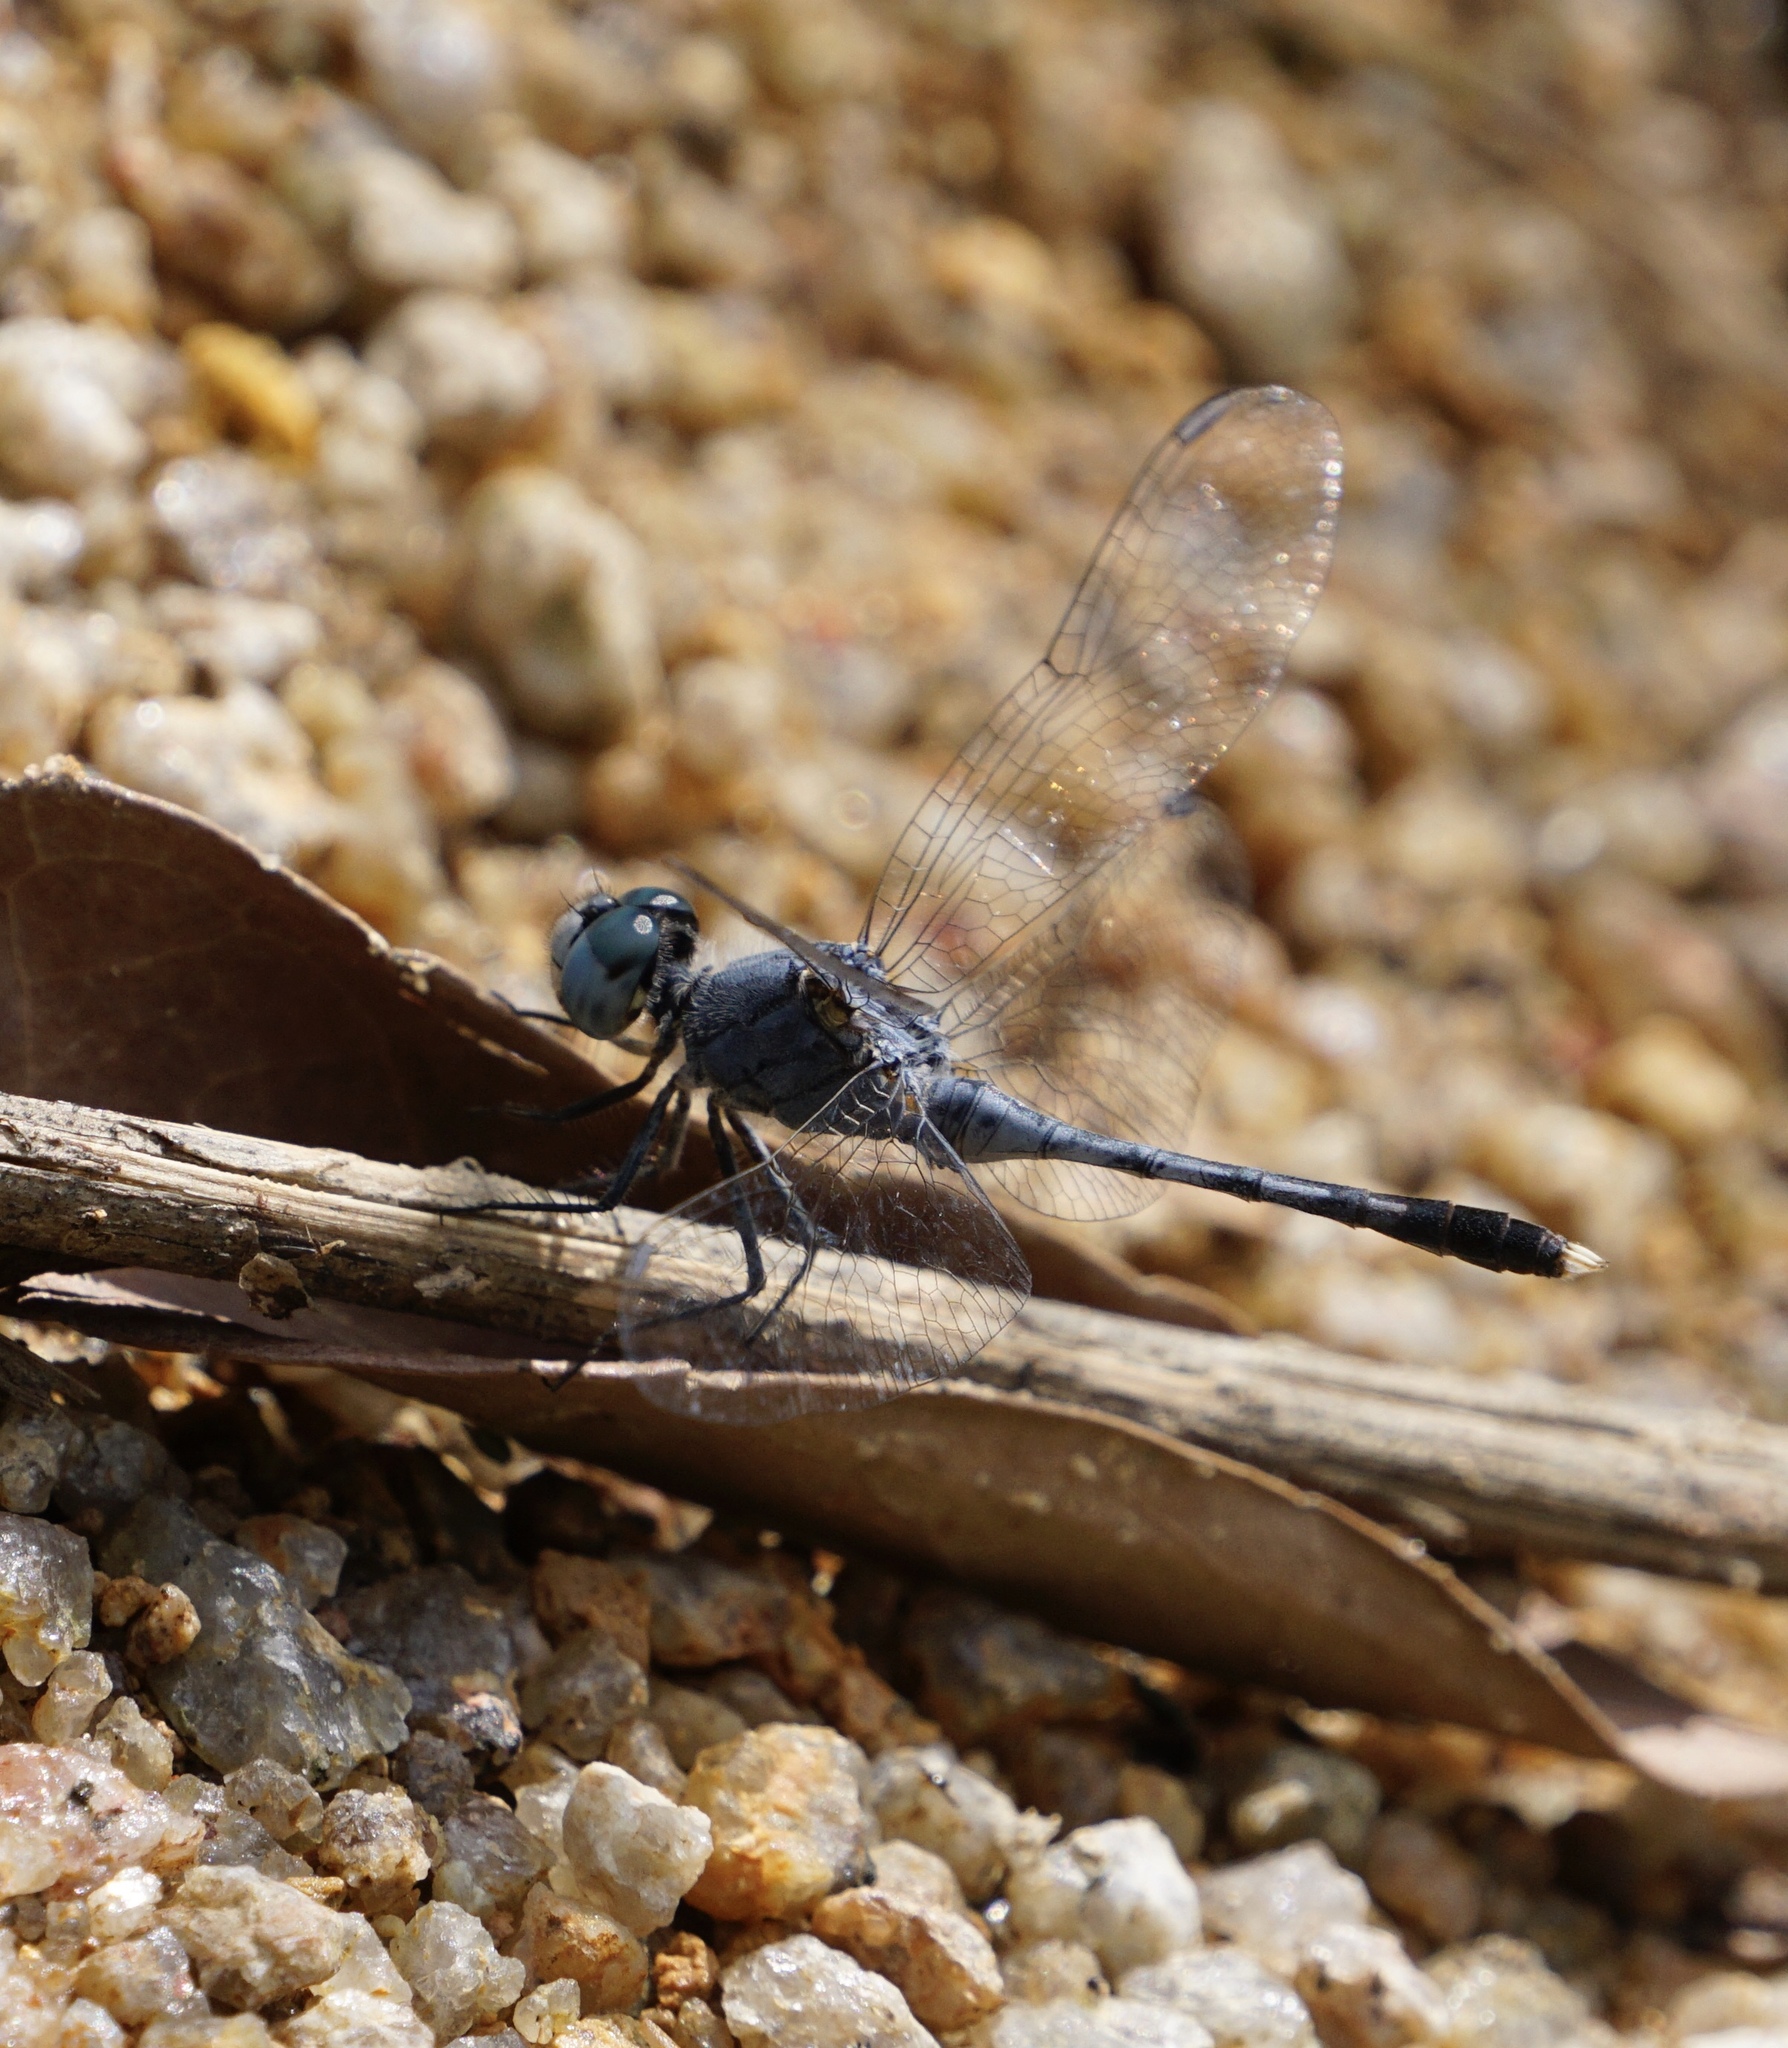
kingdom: Animalia
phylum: Arthropoda
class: Insecta
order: Odonata
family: Libellulidae
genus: Diplacodes
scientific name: Diplacodes trivialis
